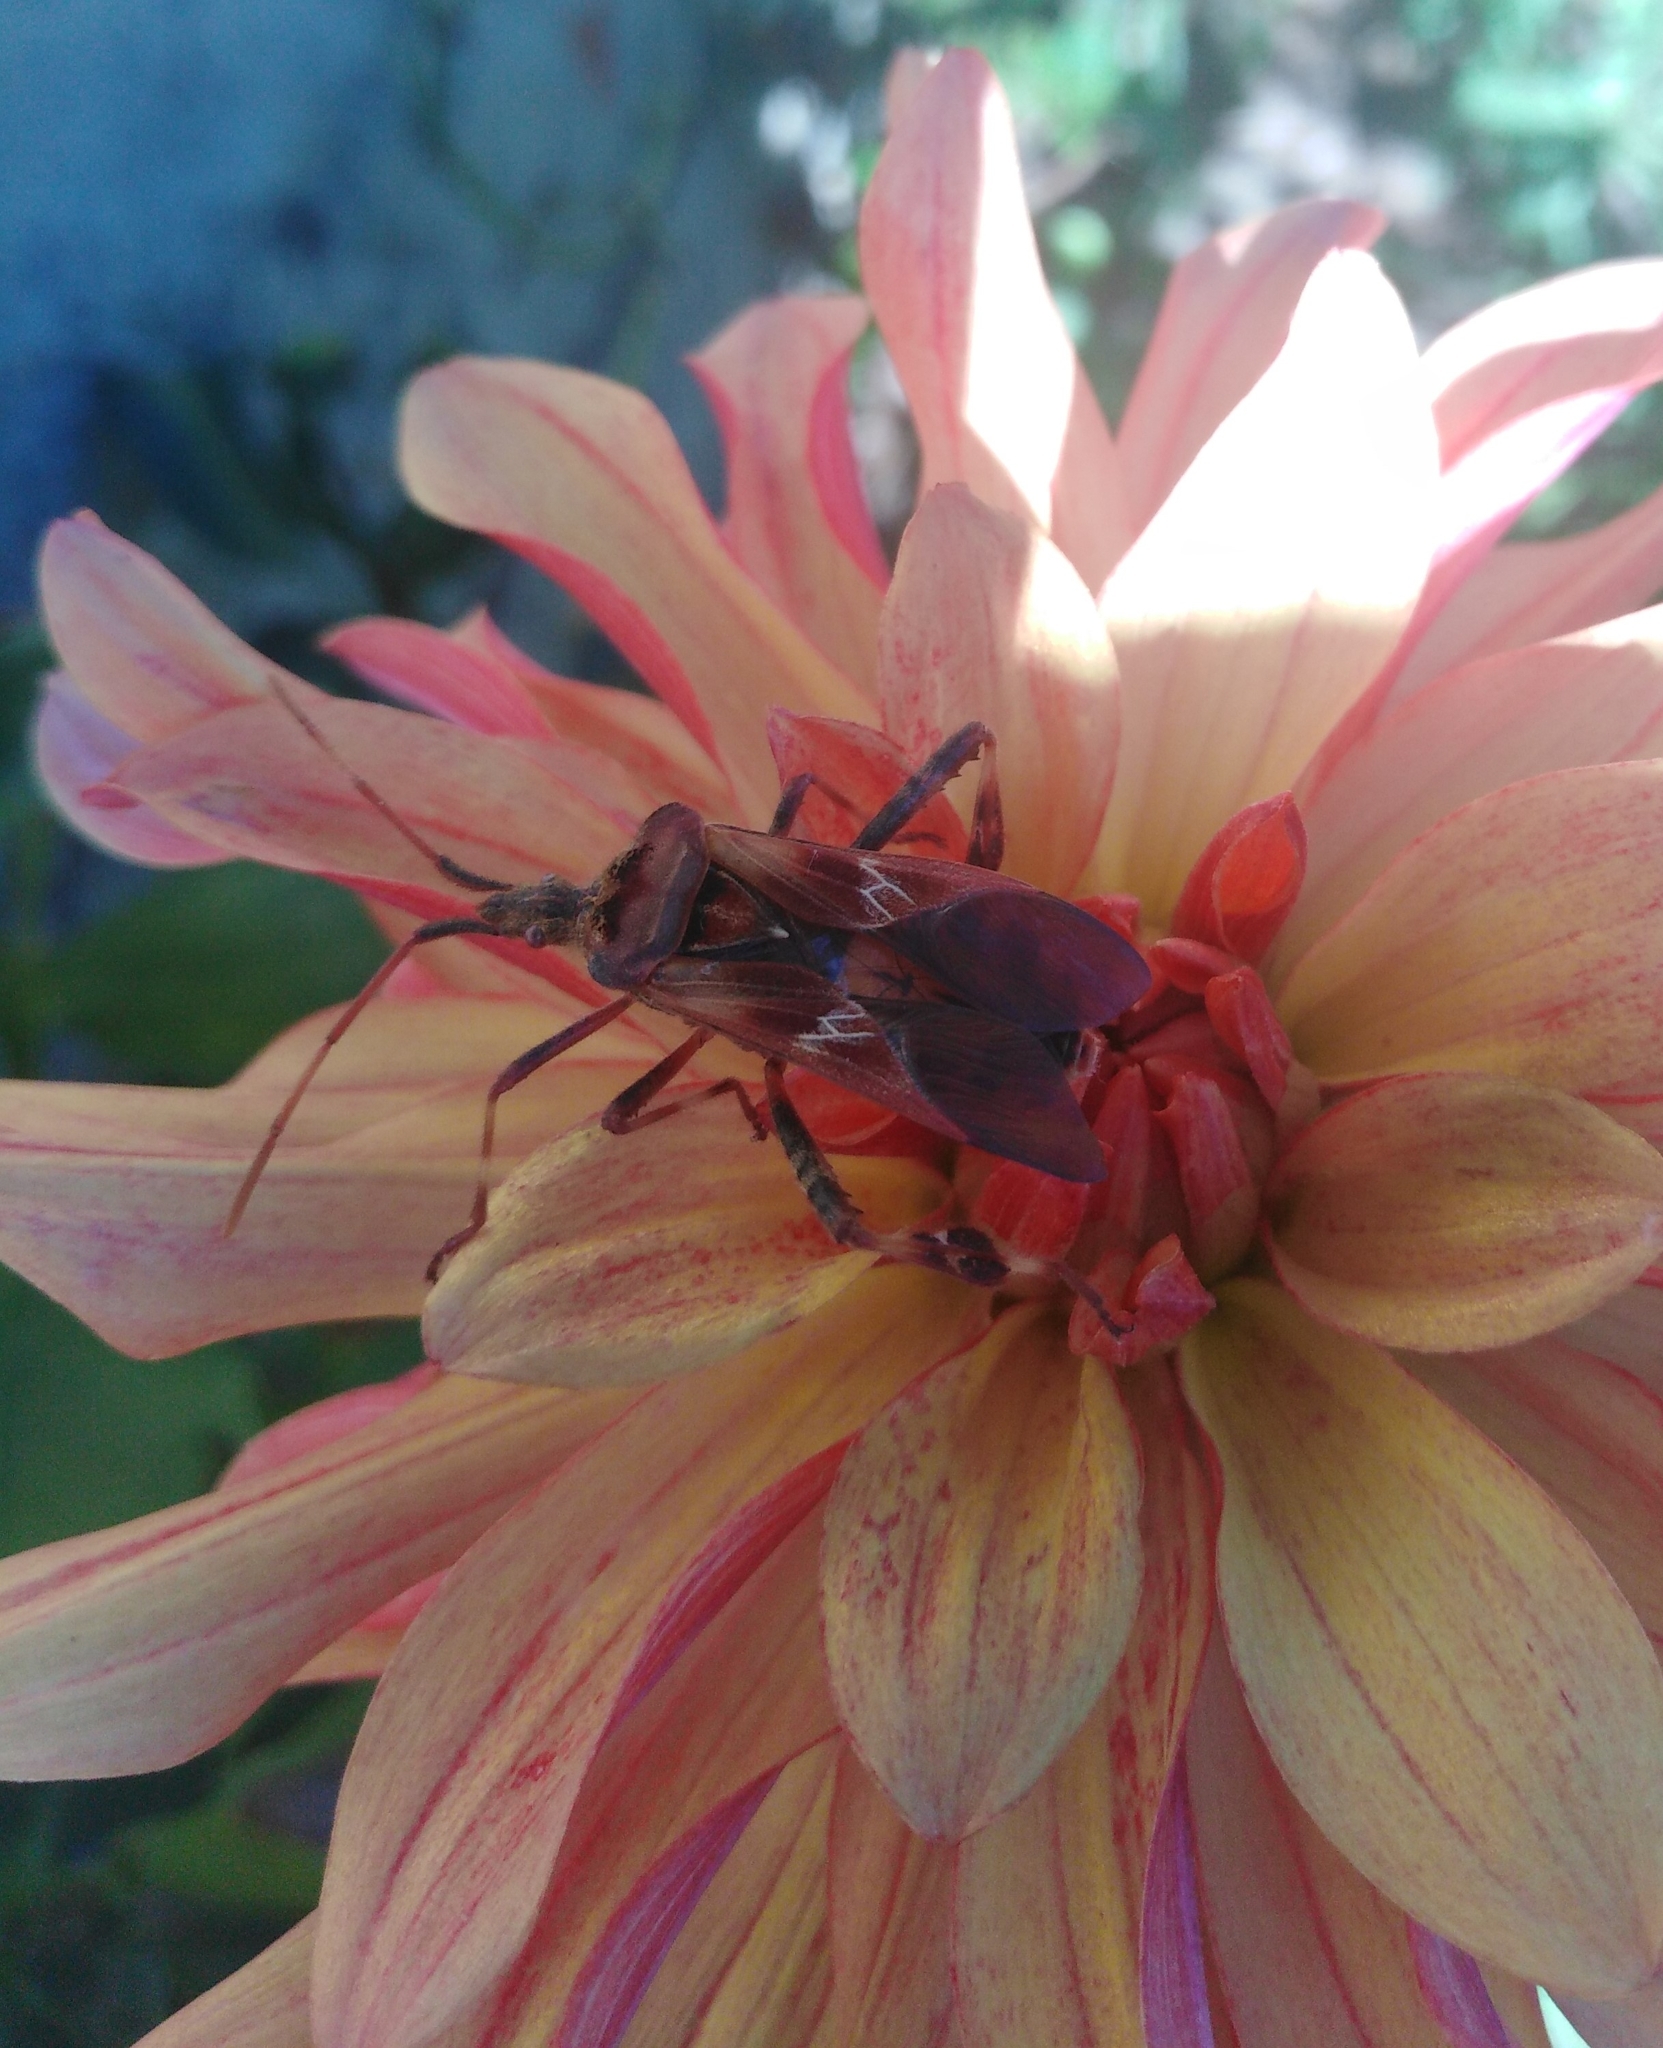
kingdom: Animalia
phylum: Arthropoda
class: Insecta
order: Hemiptera
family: Coreidae
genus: Leptoglossus
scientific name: Leptoglossus occidentalis
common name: Western conifer-seed bug
